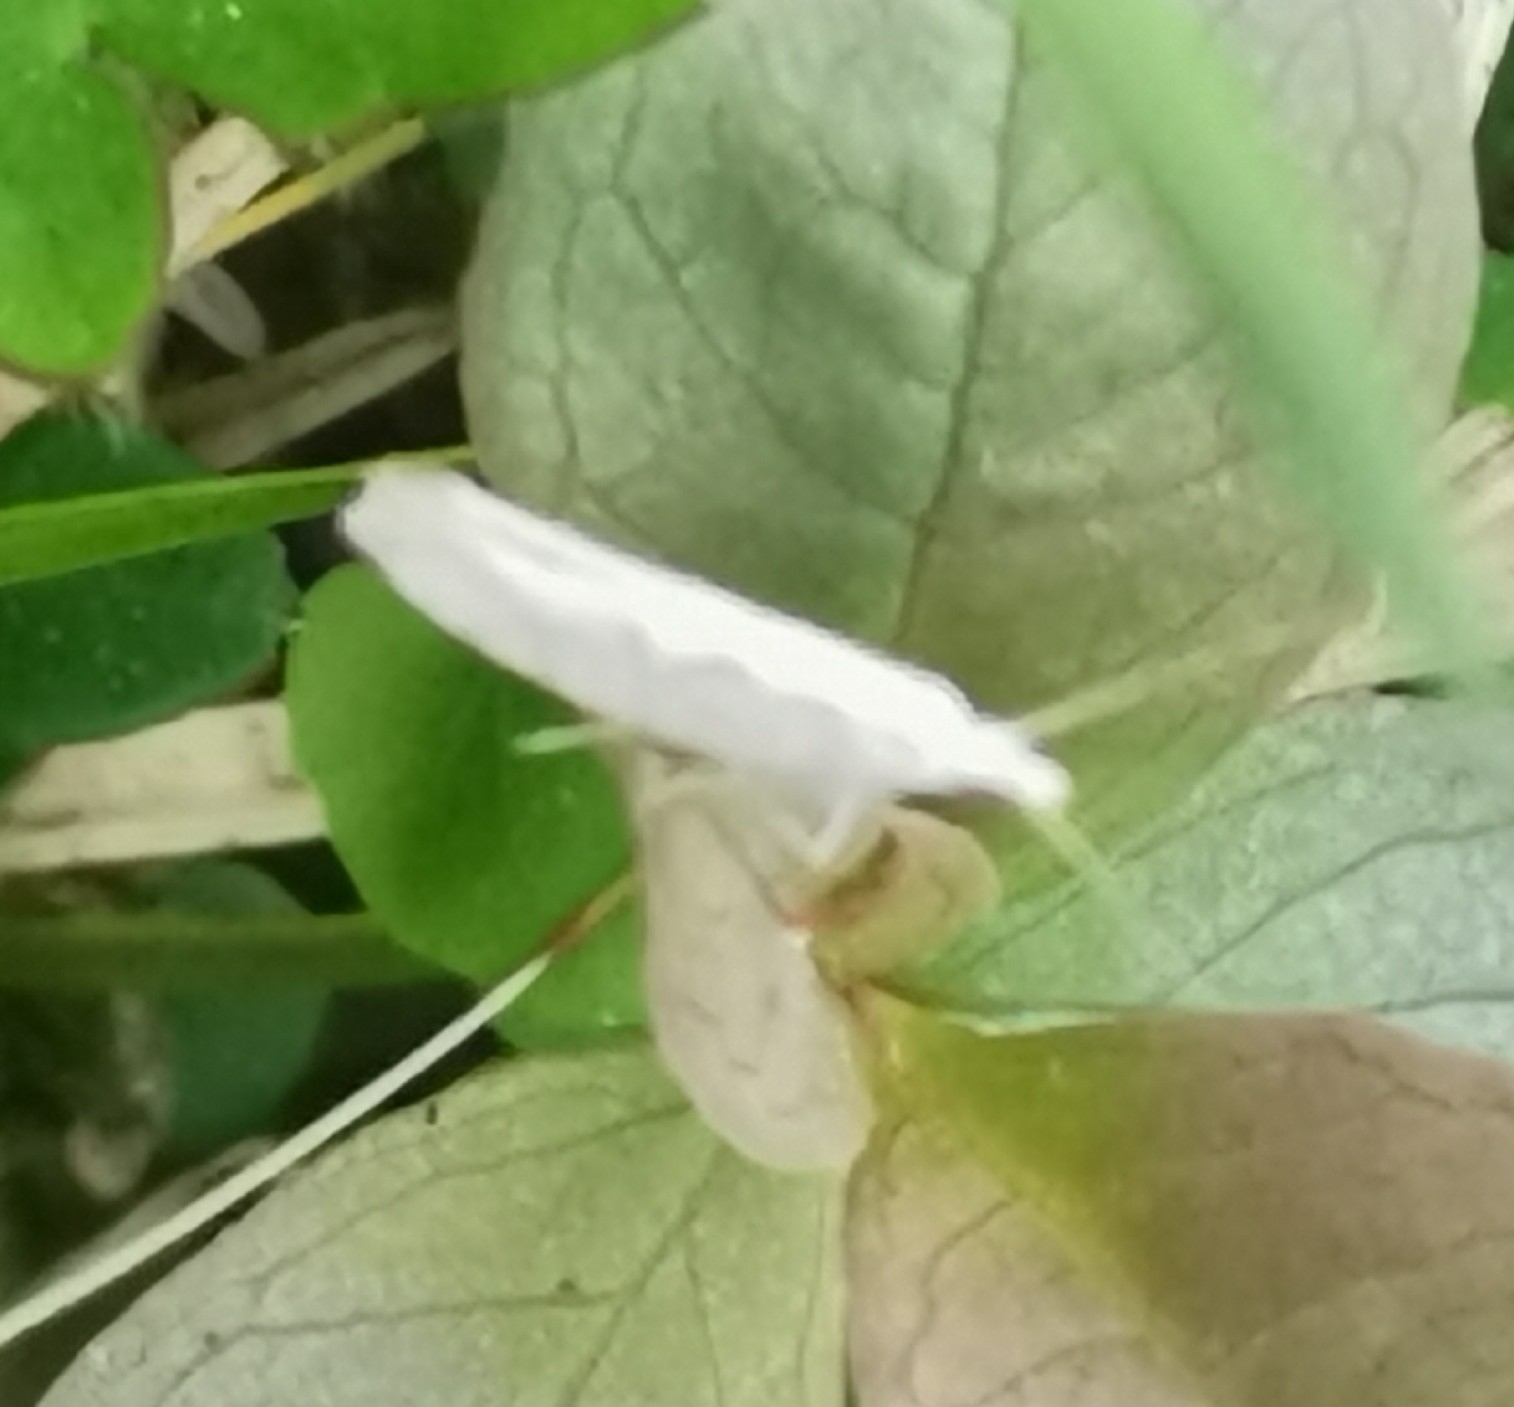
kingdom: Animalia
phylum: Arthropoda
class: Insecta
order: Lepidoptera
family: Plutellidae
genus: Plutella
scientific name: Plutella xylostella
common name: Diamond-back moth
